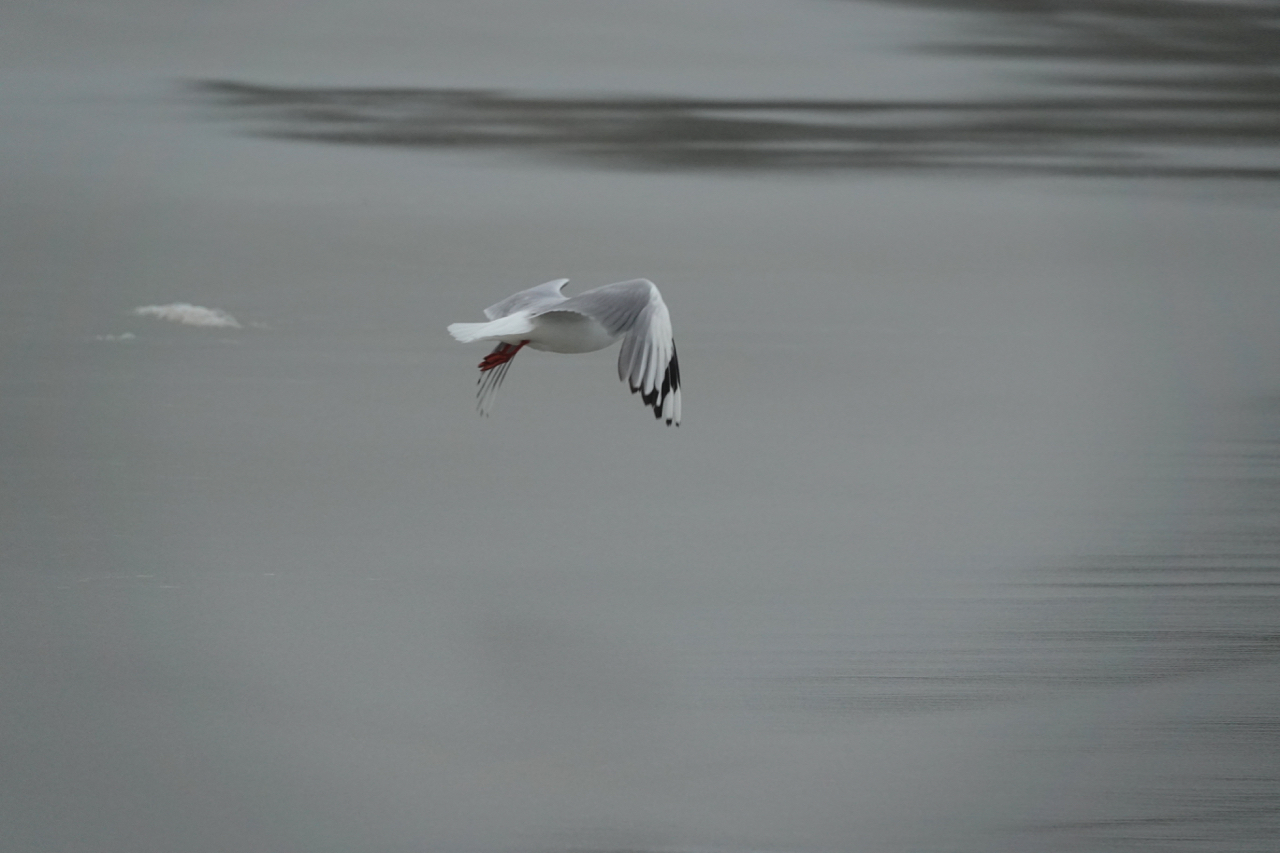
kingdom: Animalia
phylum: Chordata
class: Aves
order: Charadriiformes
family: Laridae
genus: Chroicocephalus
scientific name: Chroicocephalus novaehollandiae
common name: Silver gull
